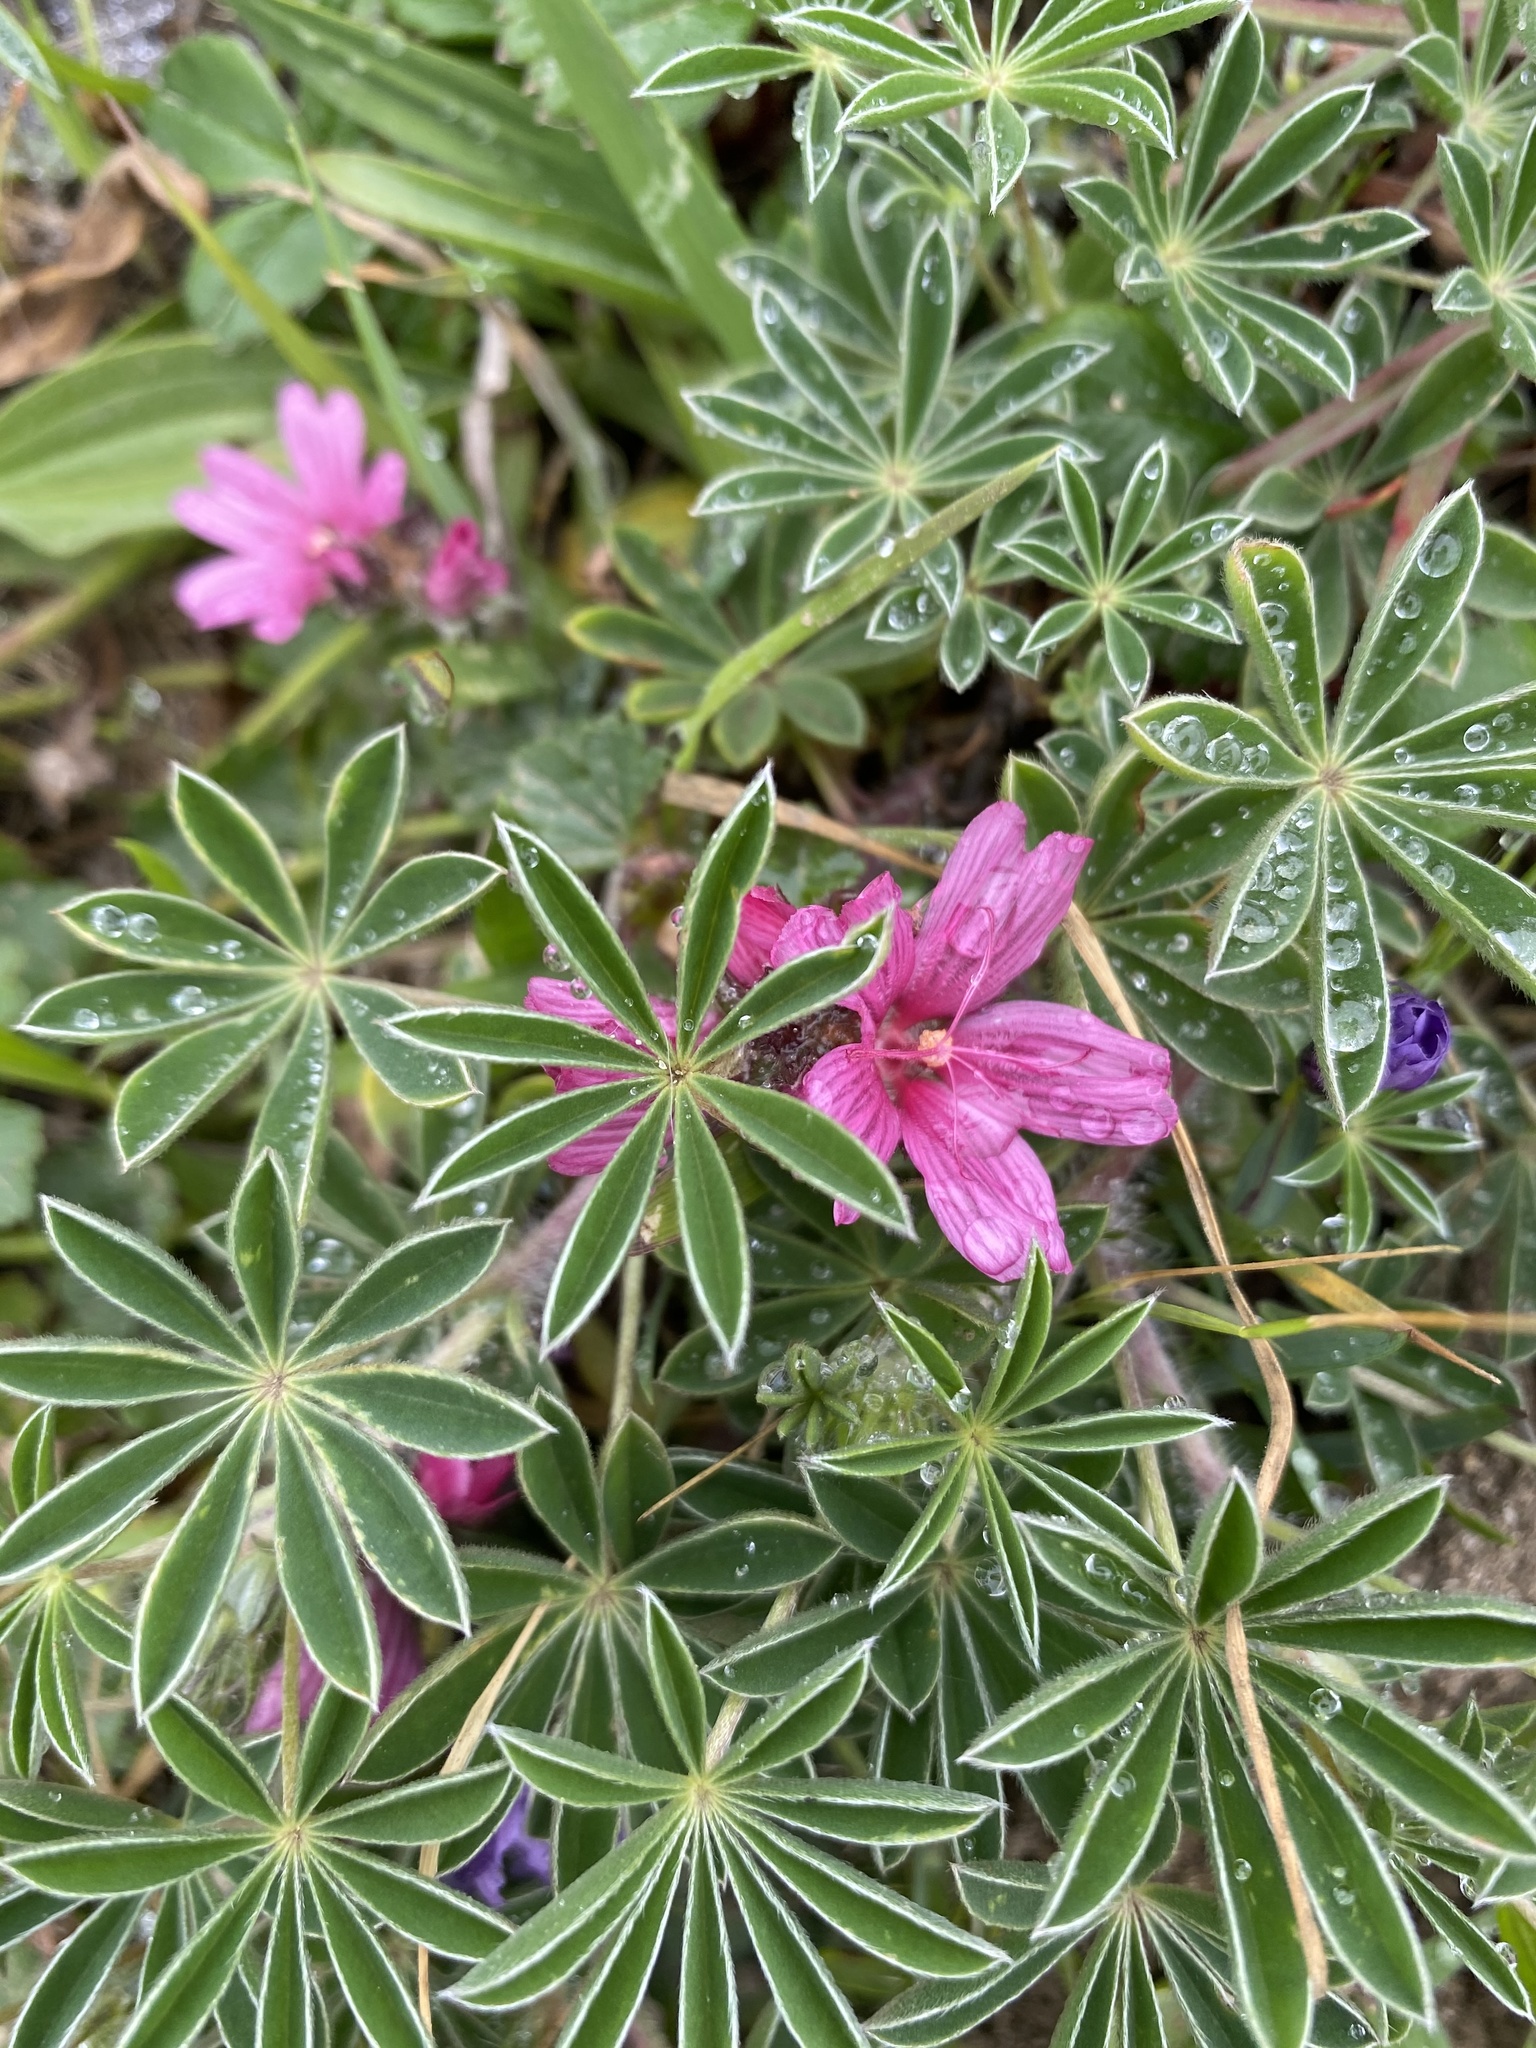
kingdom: Plantae
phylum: Tracheophyta
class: Magnoliopsida
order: Malvales
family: Malvaceae
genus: Sidalcea
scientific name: Sidalcea malviflora
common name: Greek mallow
